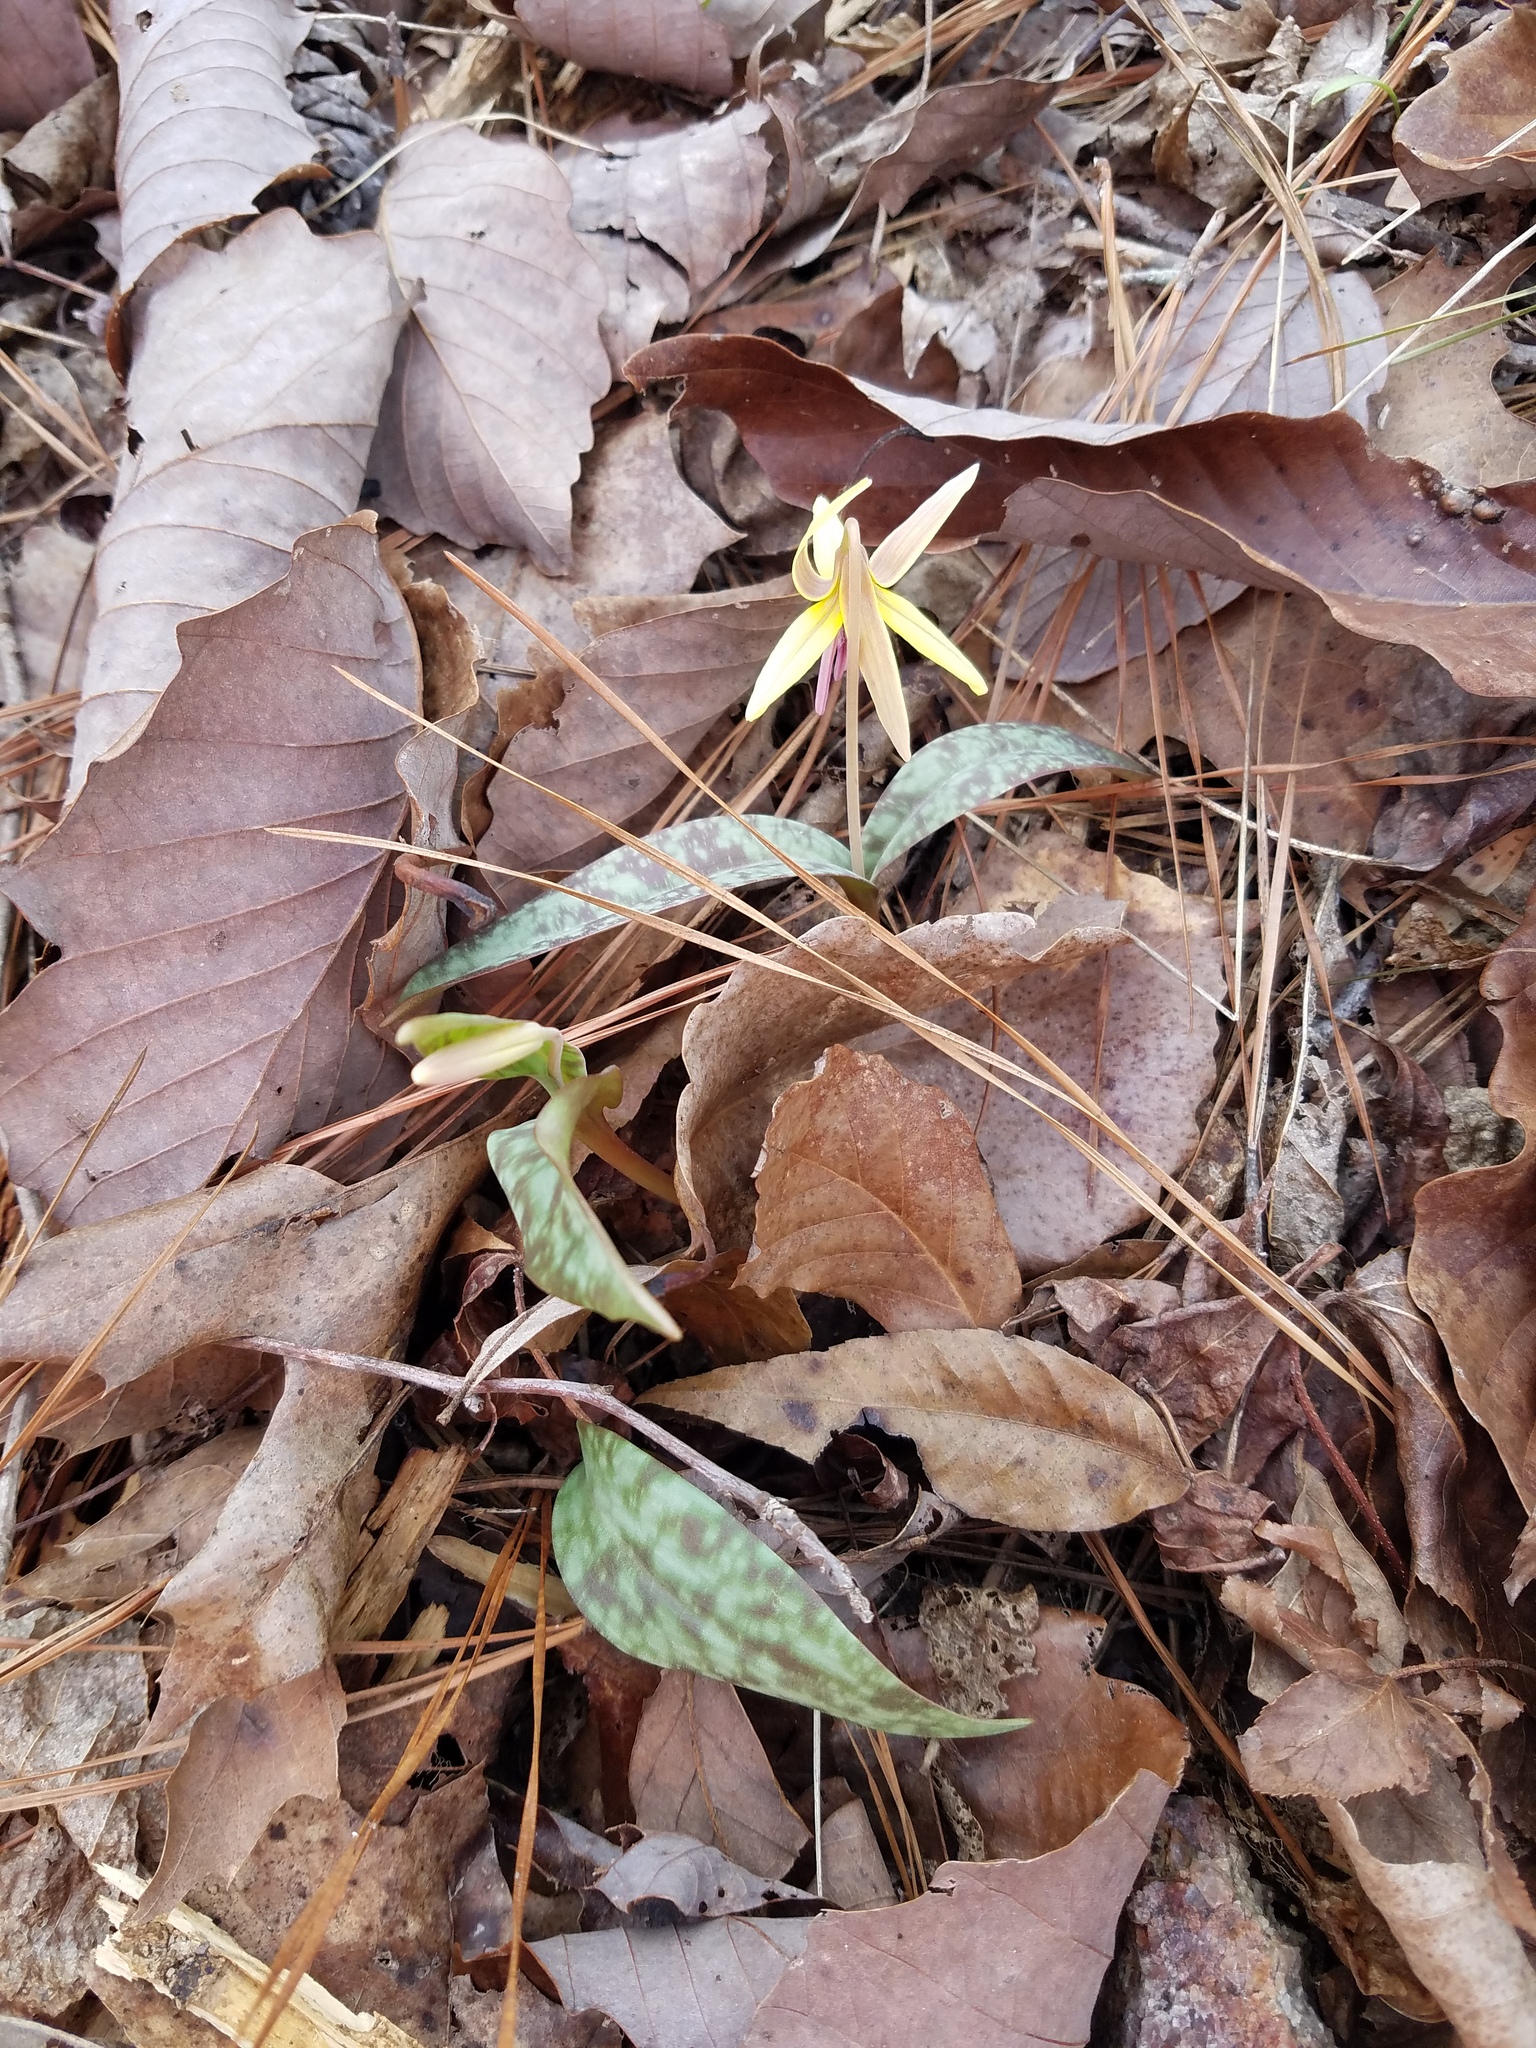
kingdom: Plantae
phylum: Tracheophyta
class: Liliopsida
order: Liliales
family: Liliaceae
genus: Erythronium
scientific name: Erythronium umbilicatum
